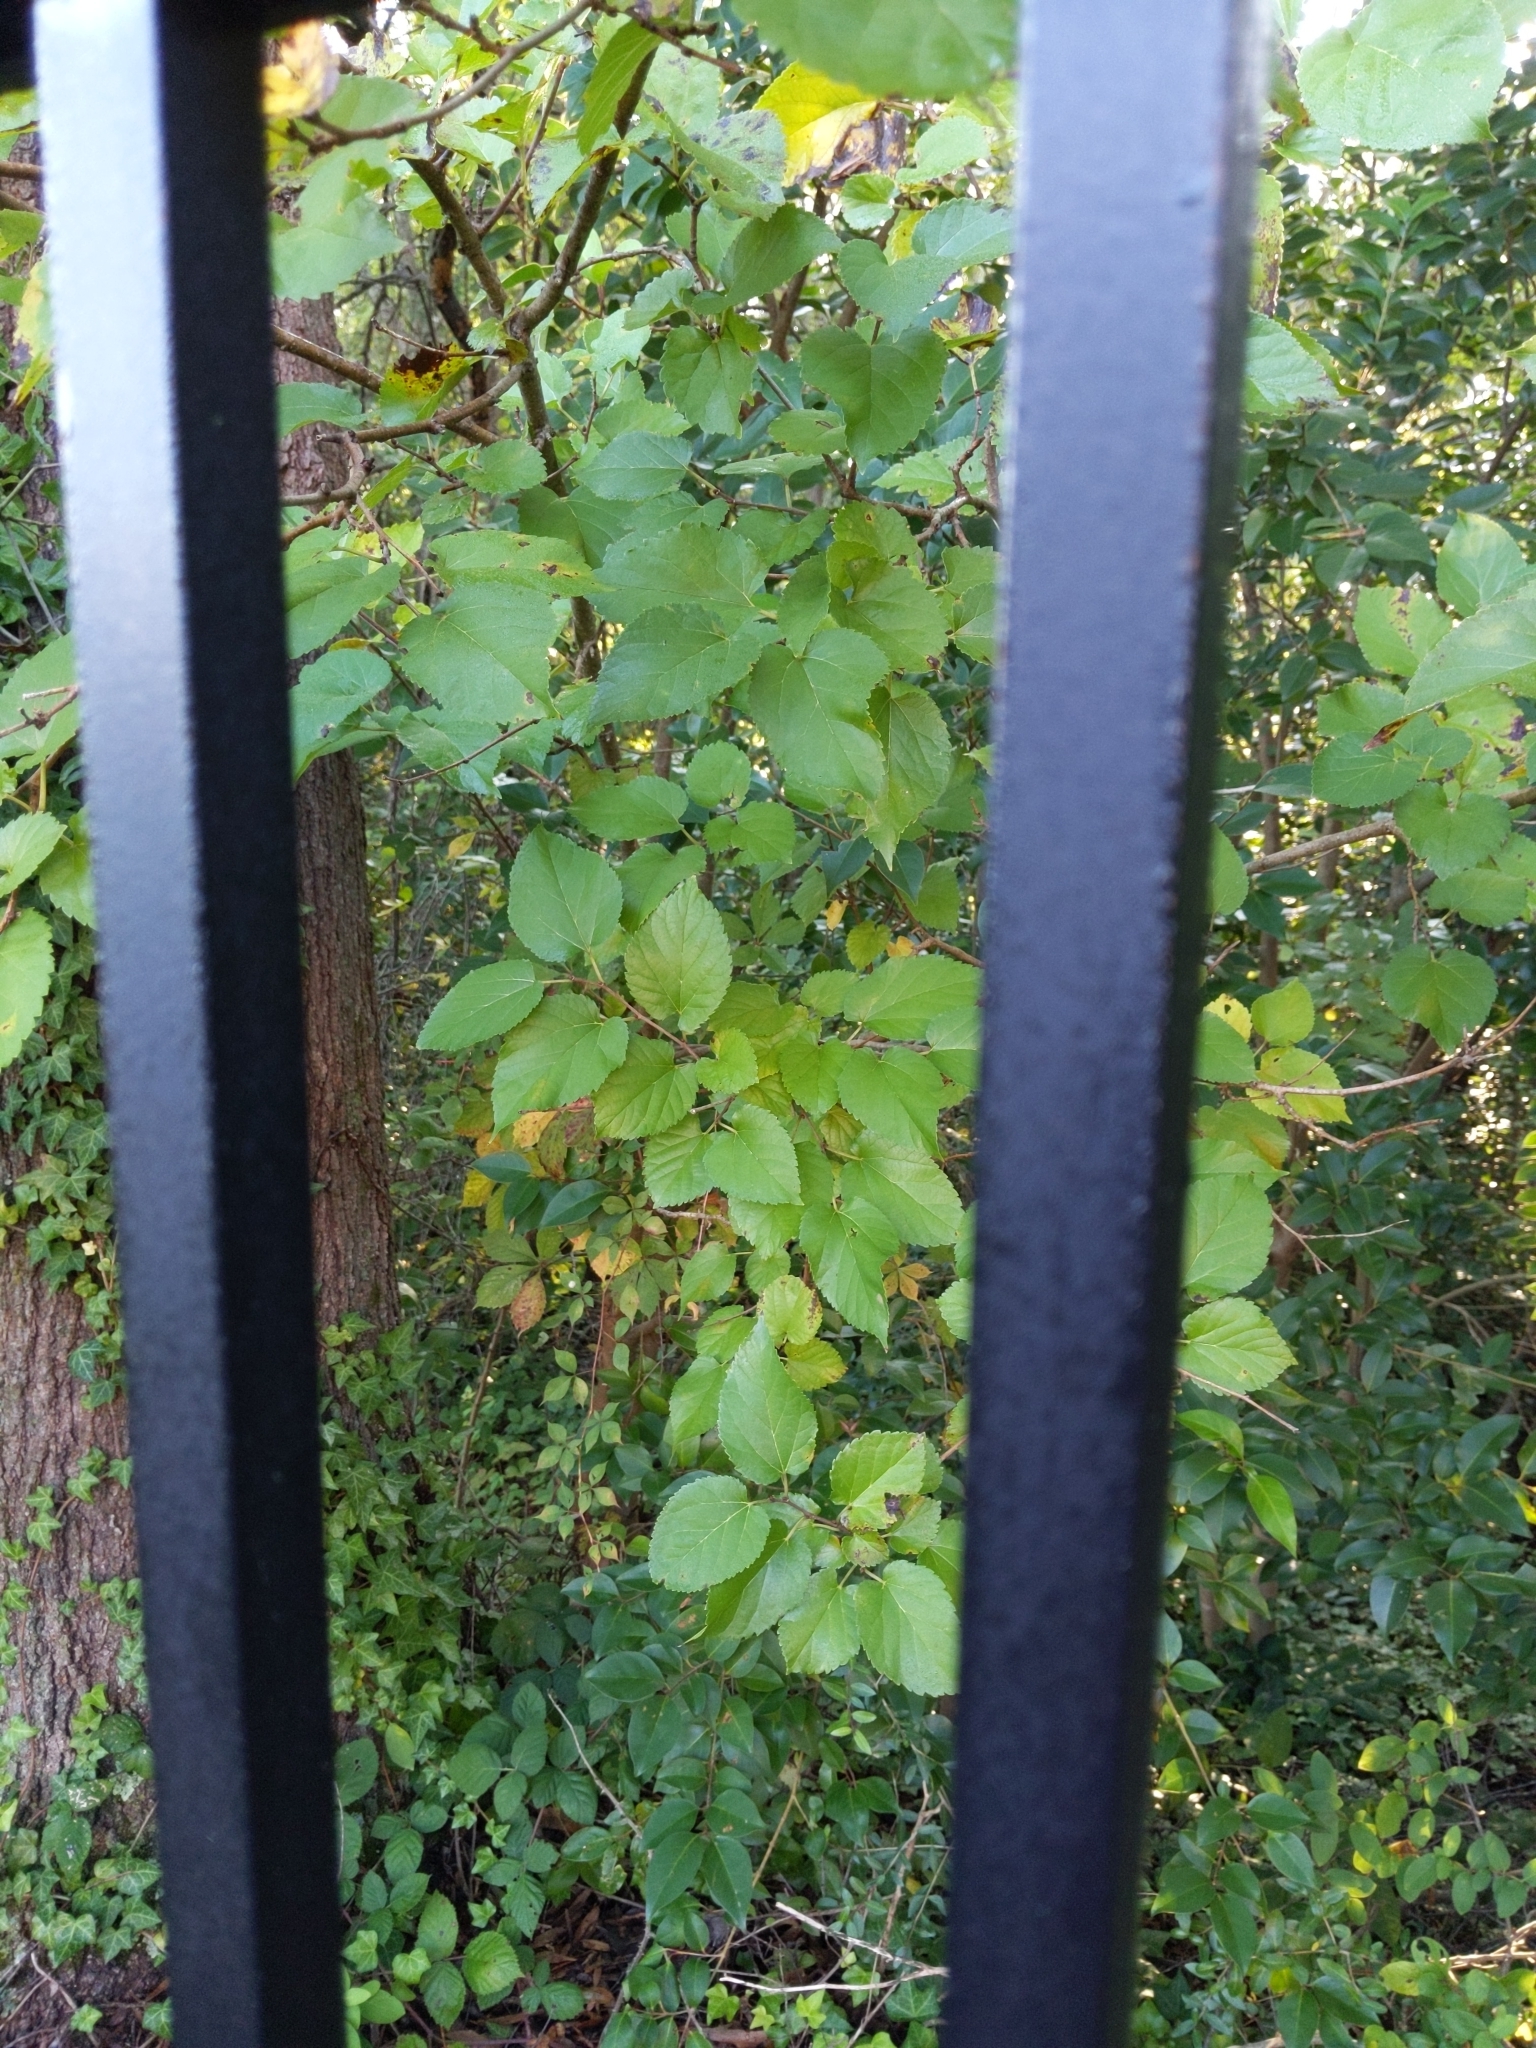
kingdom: Plantae
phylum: Tracheophyta
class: Magnoliopsida
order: Rosales
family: Moraceae
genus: Morus
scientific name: Morus alba
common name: White mulberry
